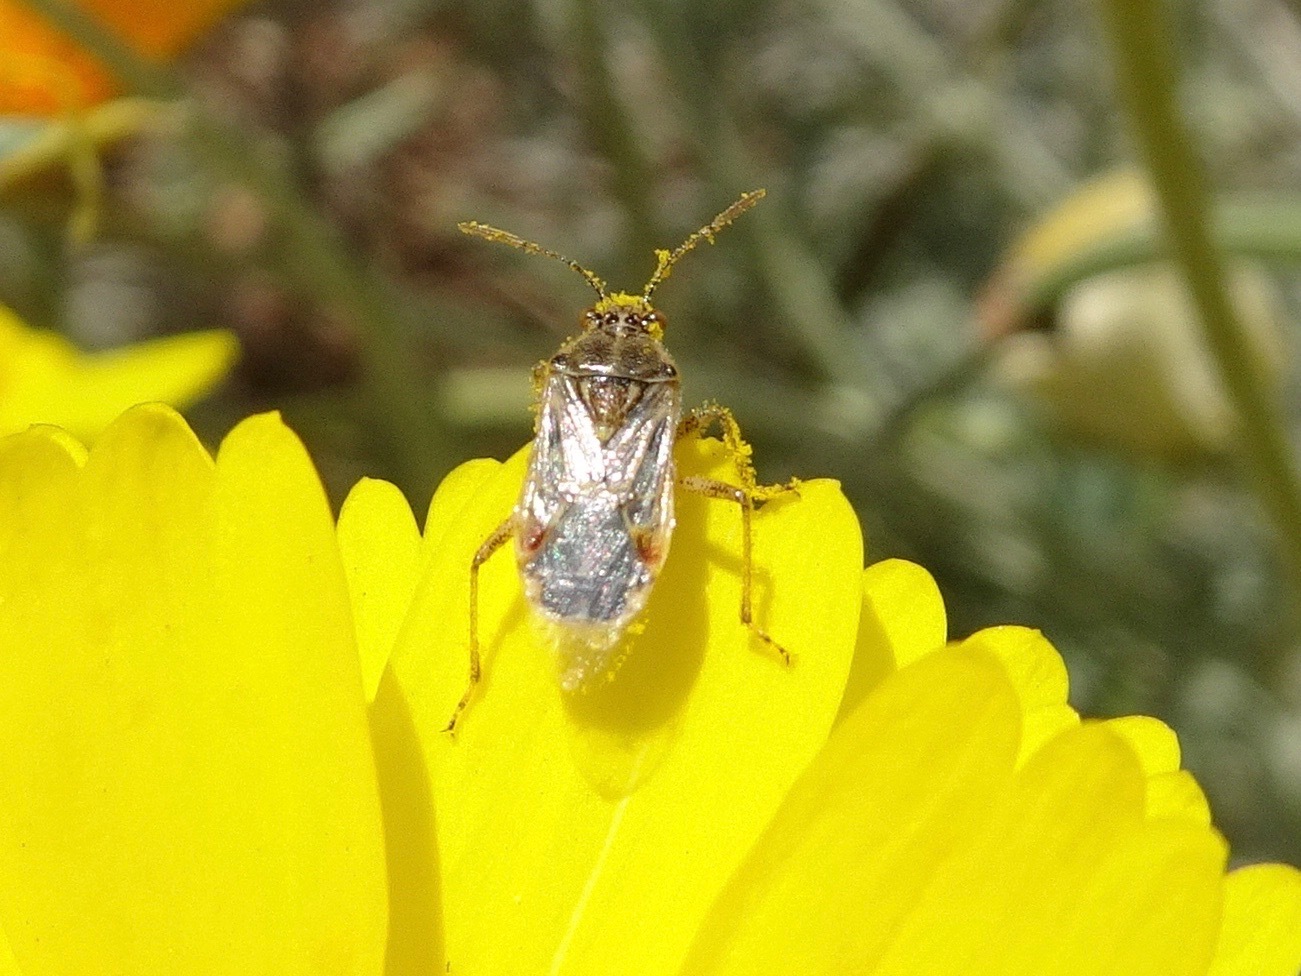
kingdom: Animalia
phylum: Arthropoda
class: Insecta
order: Hemiptera
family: Rhopalidae
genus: Liorhyssus
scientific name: Liorhyssus hyalinus
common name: Scentless plant bug
